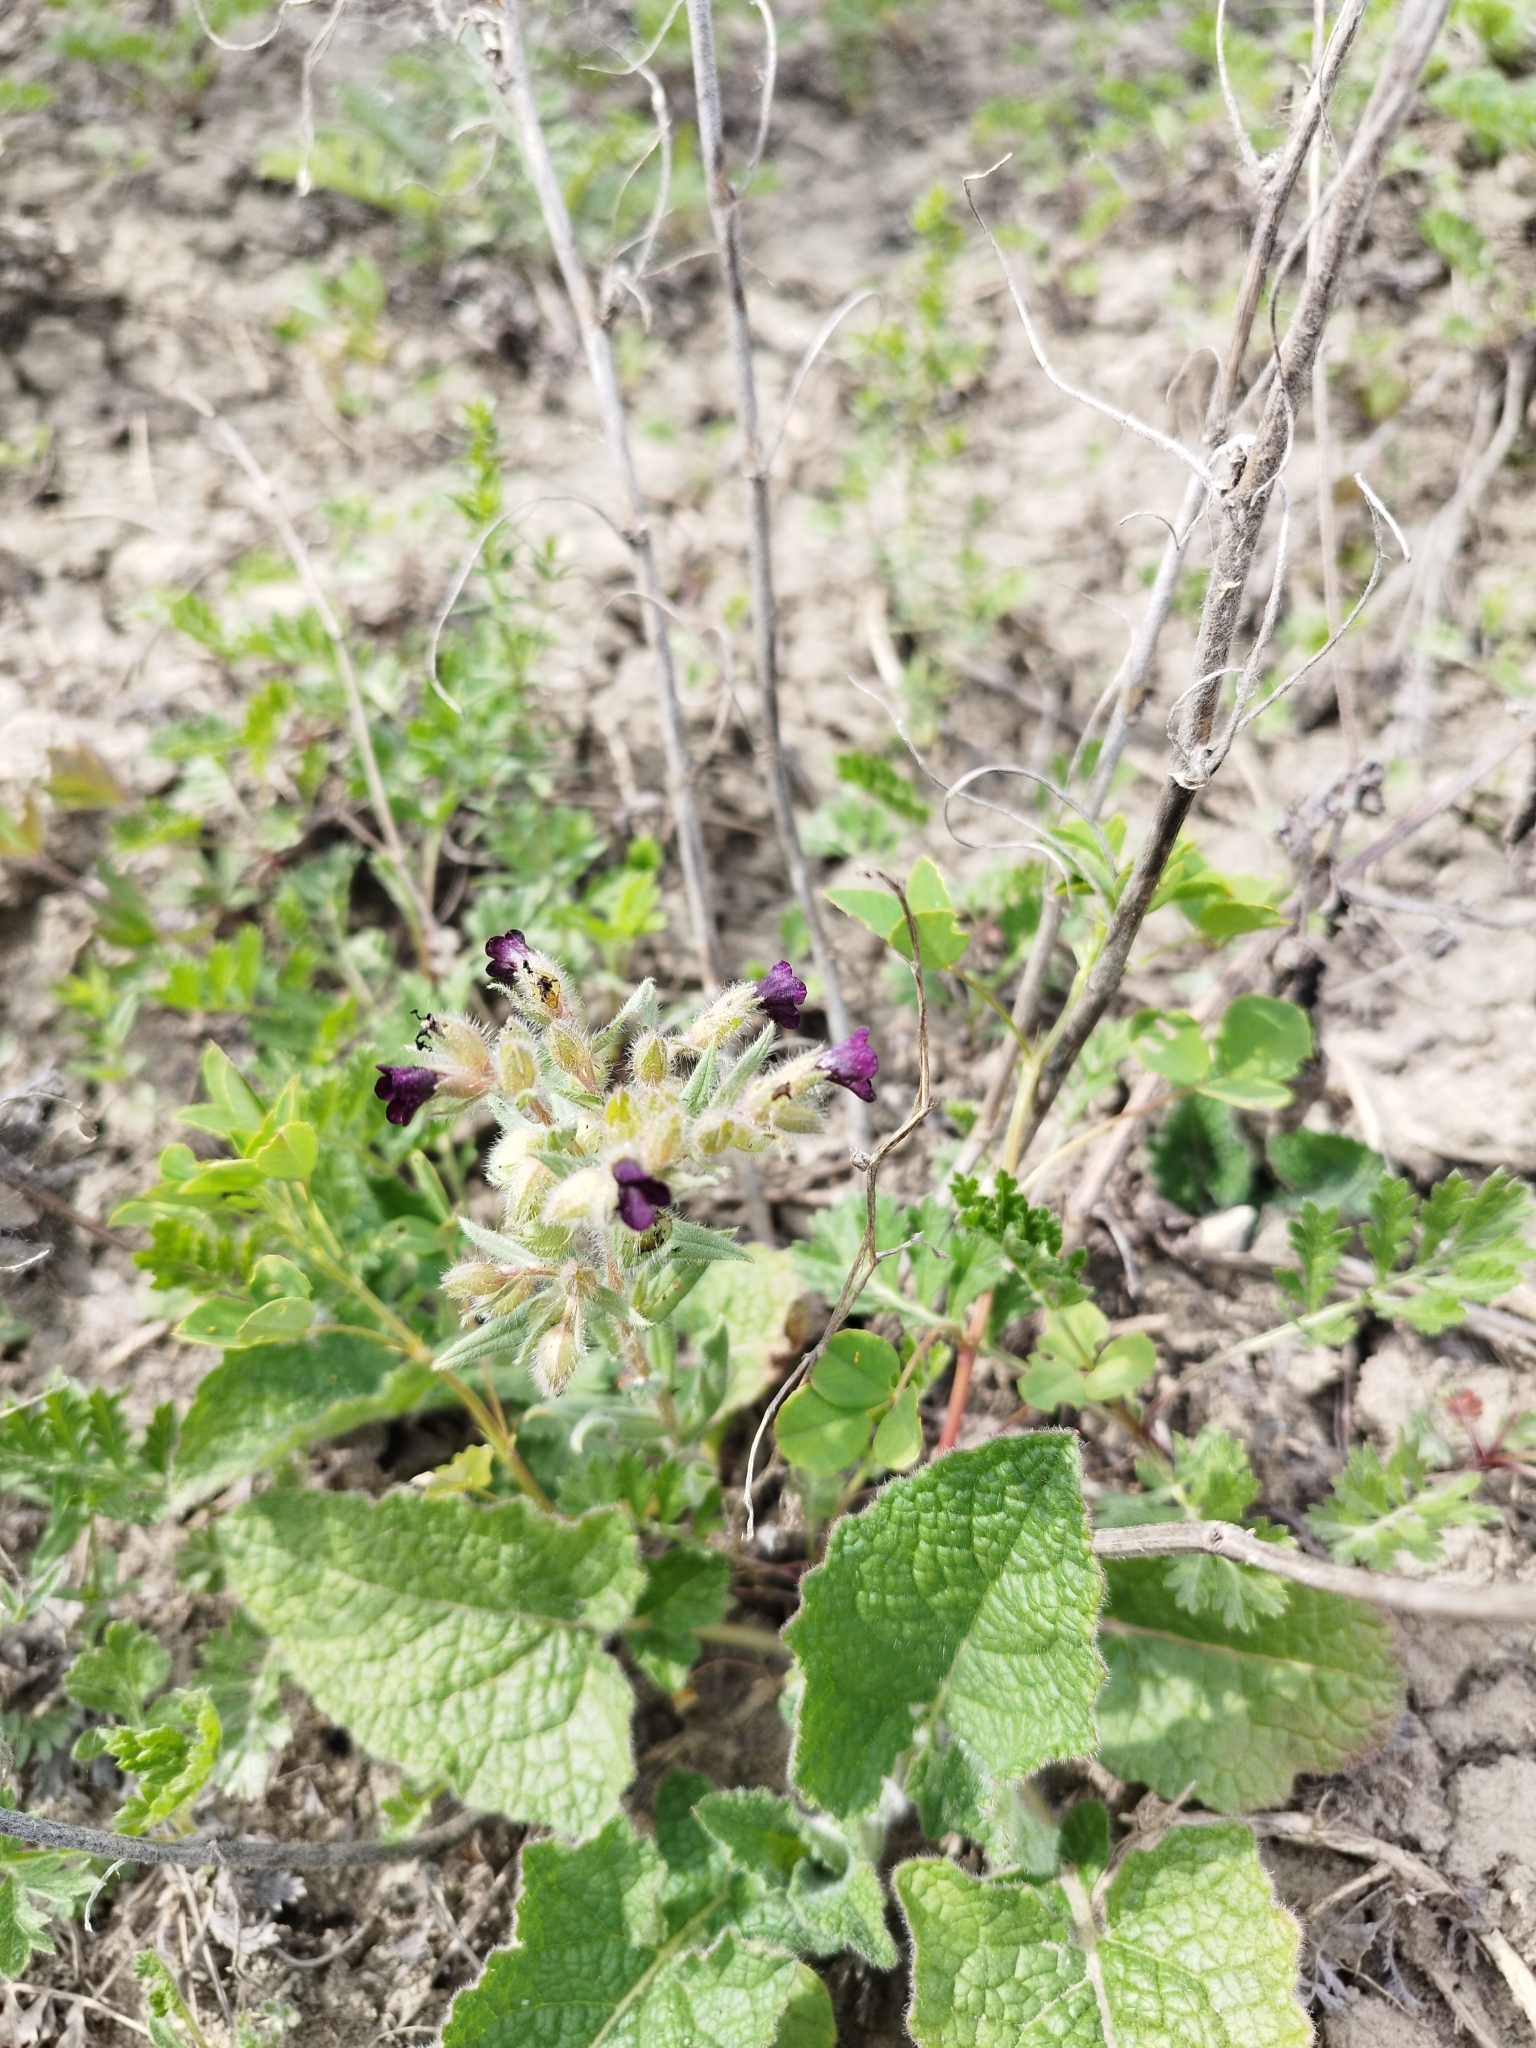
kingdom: Plantae
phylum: Tracheophyta
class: Magnoliopsida
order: Boraginales
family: Boraginaceae
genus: Nonea
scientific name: Nonea pulla
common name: Brown nonea
